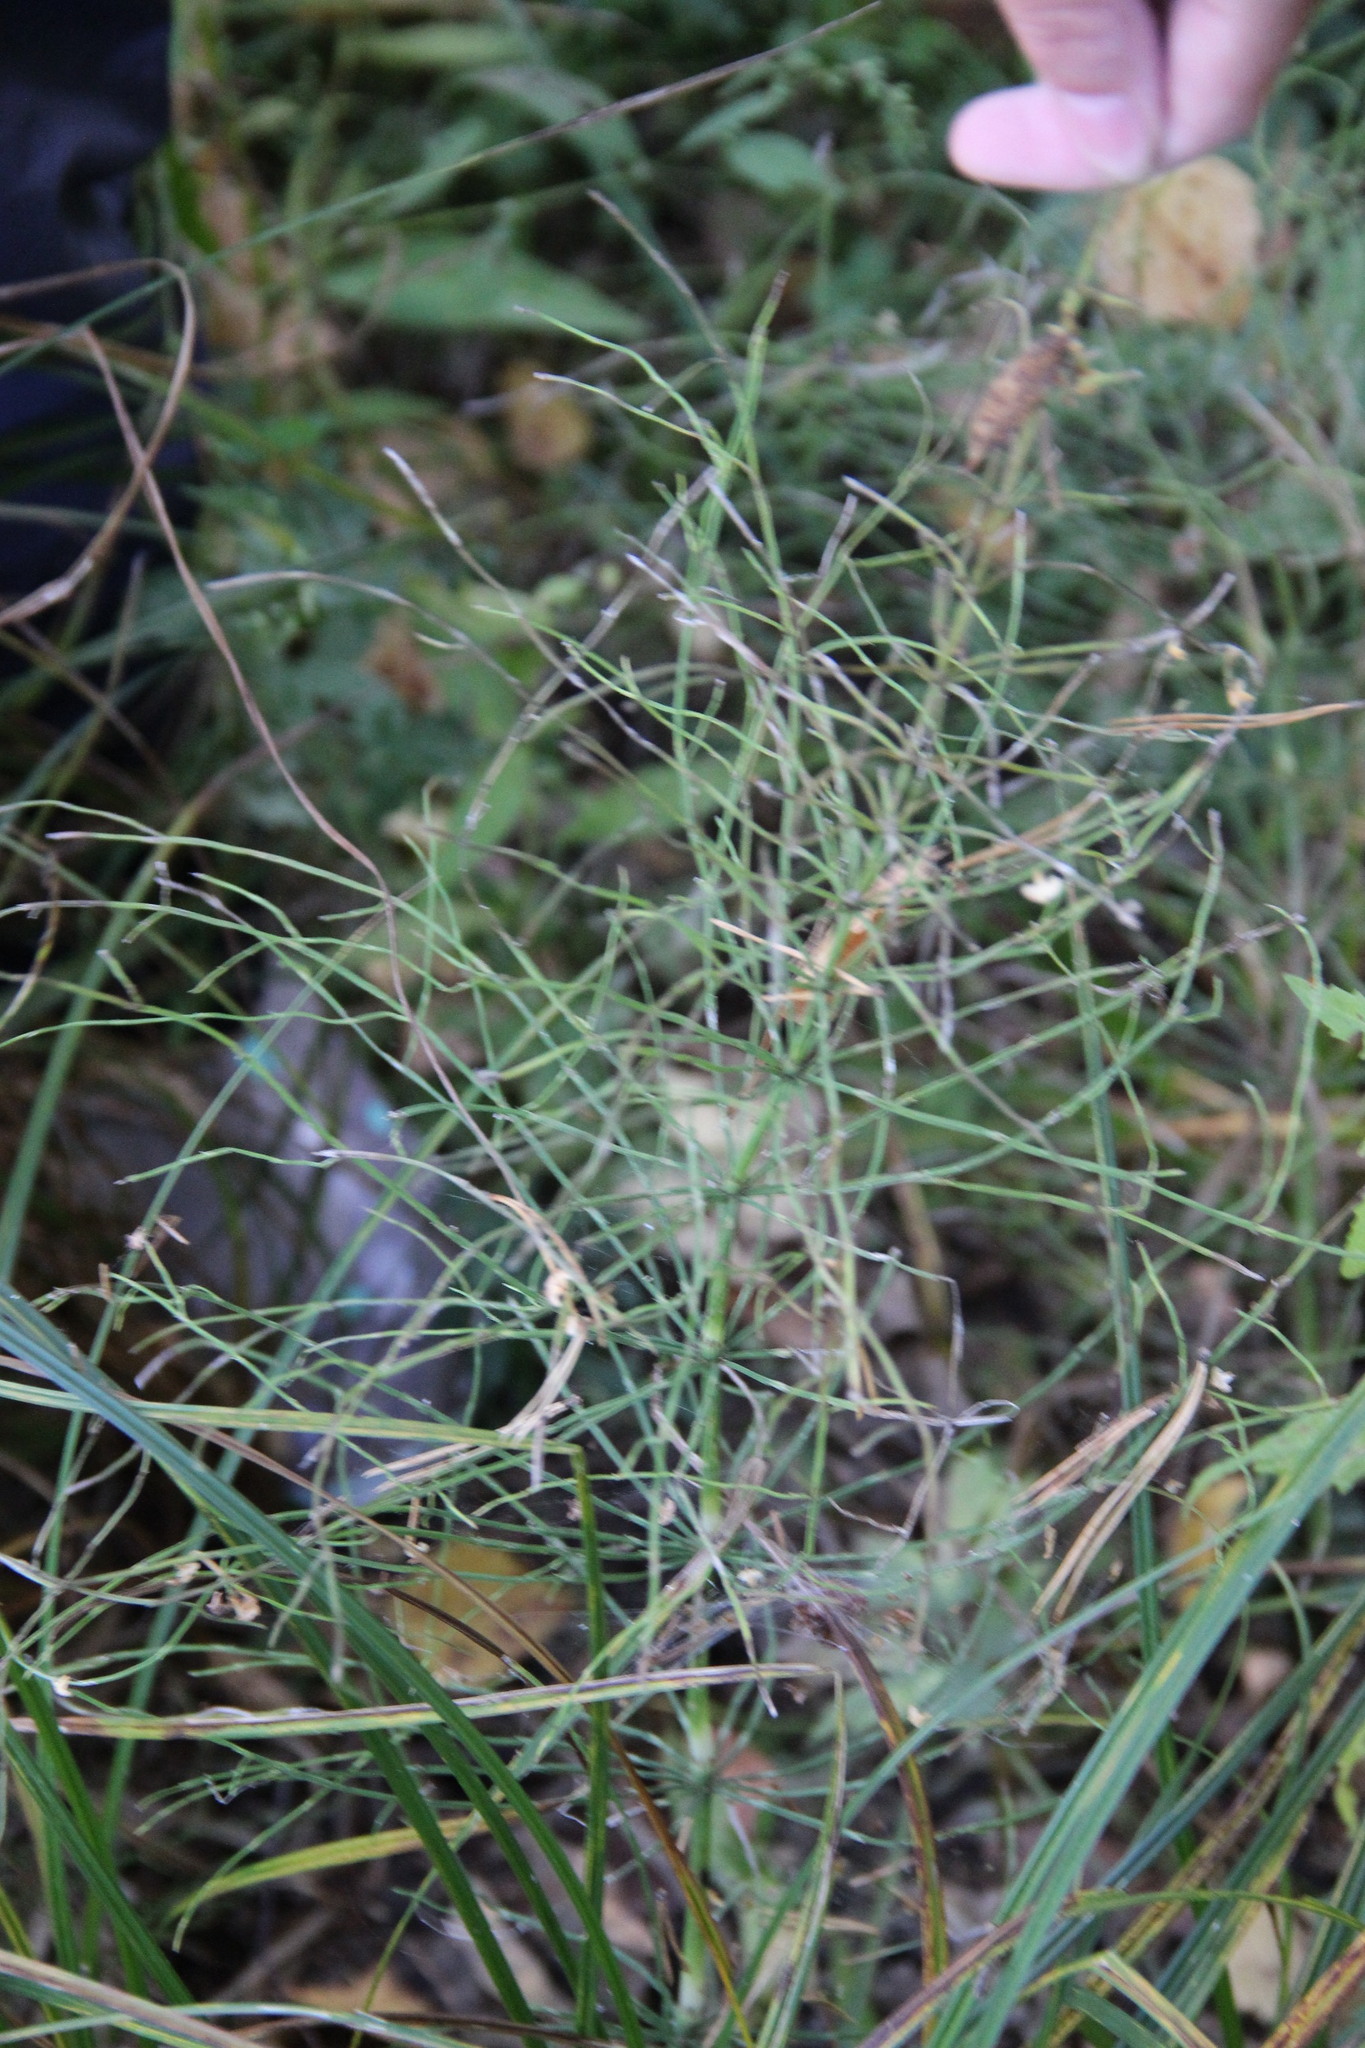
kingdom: Plantae
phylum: Tracheophyta
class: Polypodiopsida
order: Equisetales
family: Equisetaceae
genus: Equisetum
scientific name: Equisetum pratense
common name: Meadow horsetail
